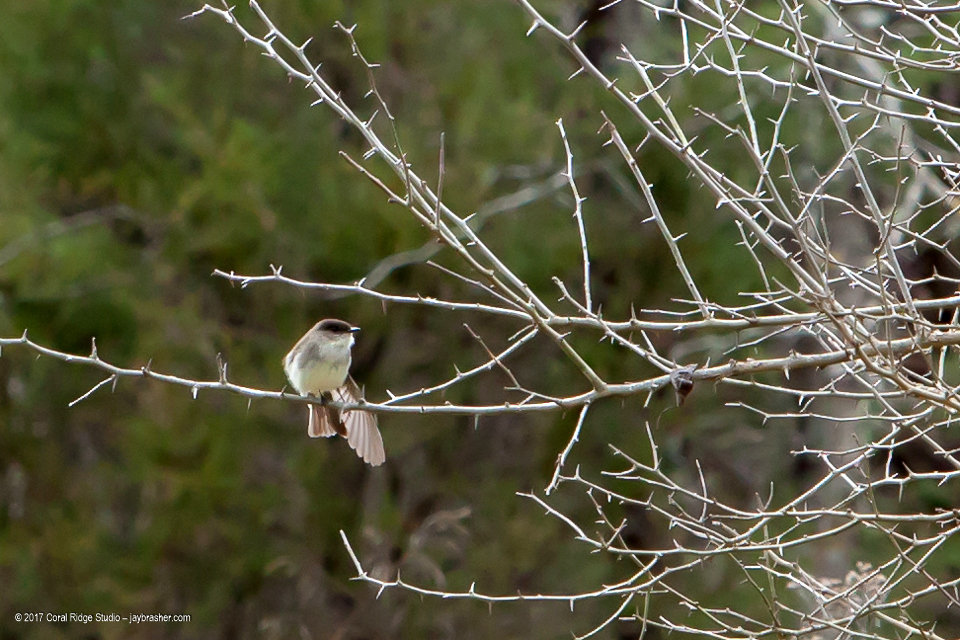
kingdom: Animalia
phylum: Chordata
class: Aves
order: Passeriformes
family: Tyrannidae
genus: Sayornis
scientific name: Sayornis phoebe
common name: Eastern phoebe
